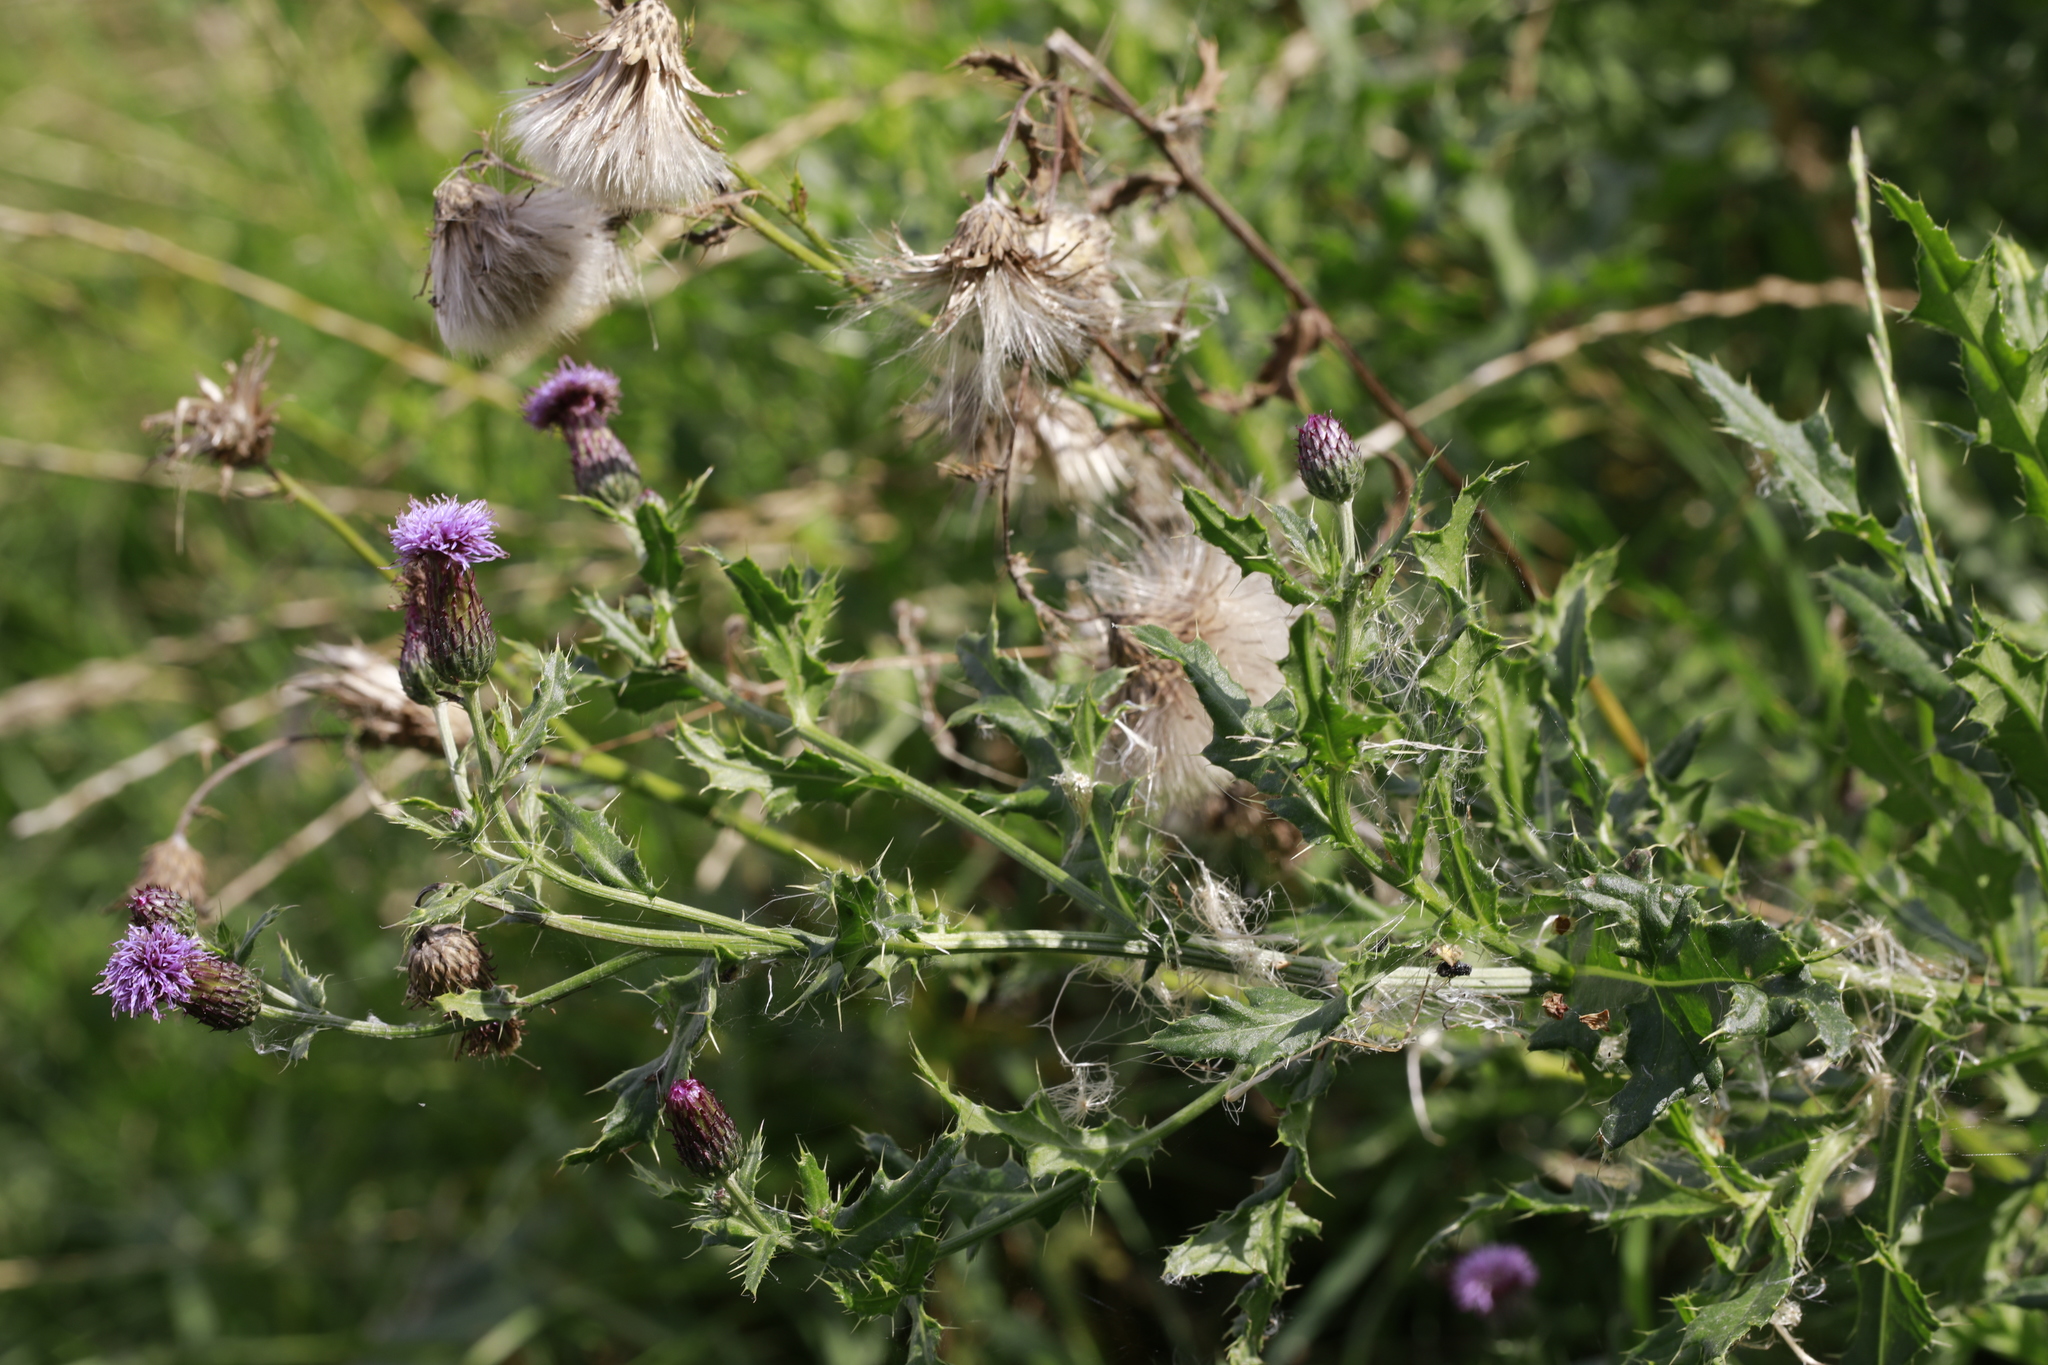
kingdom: Plantae
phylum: Tracheophyta
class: Magnoliopsida
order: Asterales
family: Asteraceae
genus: Cirsium
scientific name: Cirsium arvense
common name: Creeping thistle
